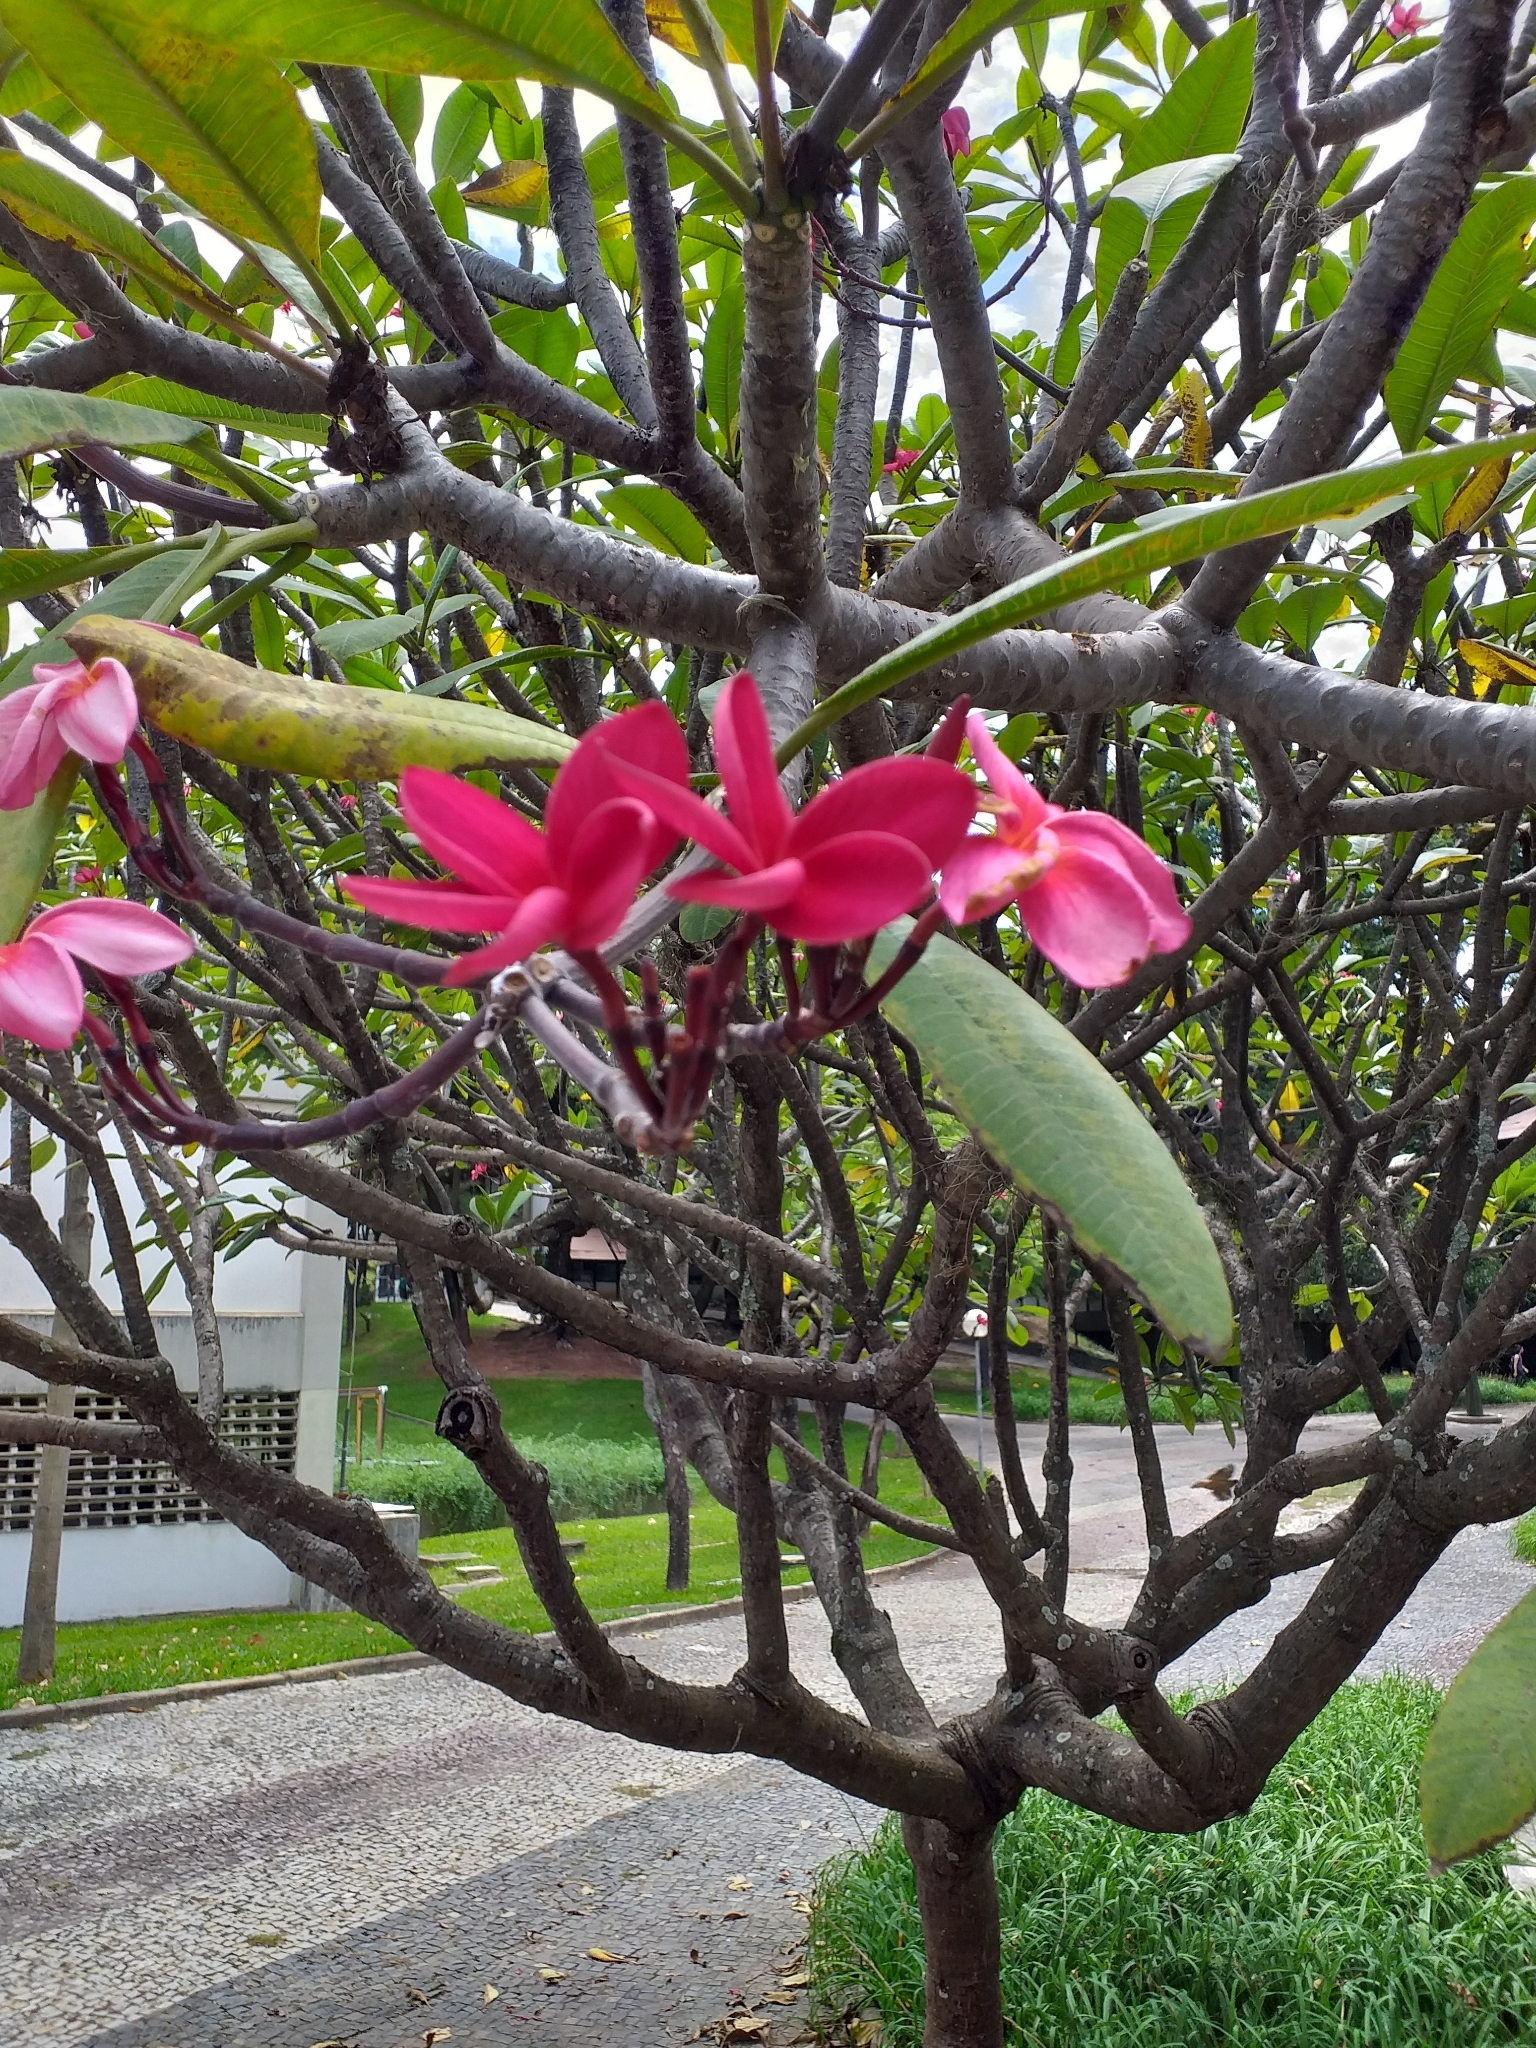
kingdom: Plantae
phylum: Tracheophyta
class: Magnoliopsida
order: Gentianales
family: Apocynaceae
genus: Plumeria
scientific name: Plumeria rubra
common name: Pagoda-tree
